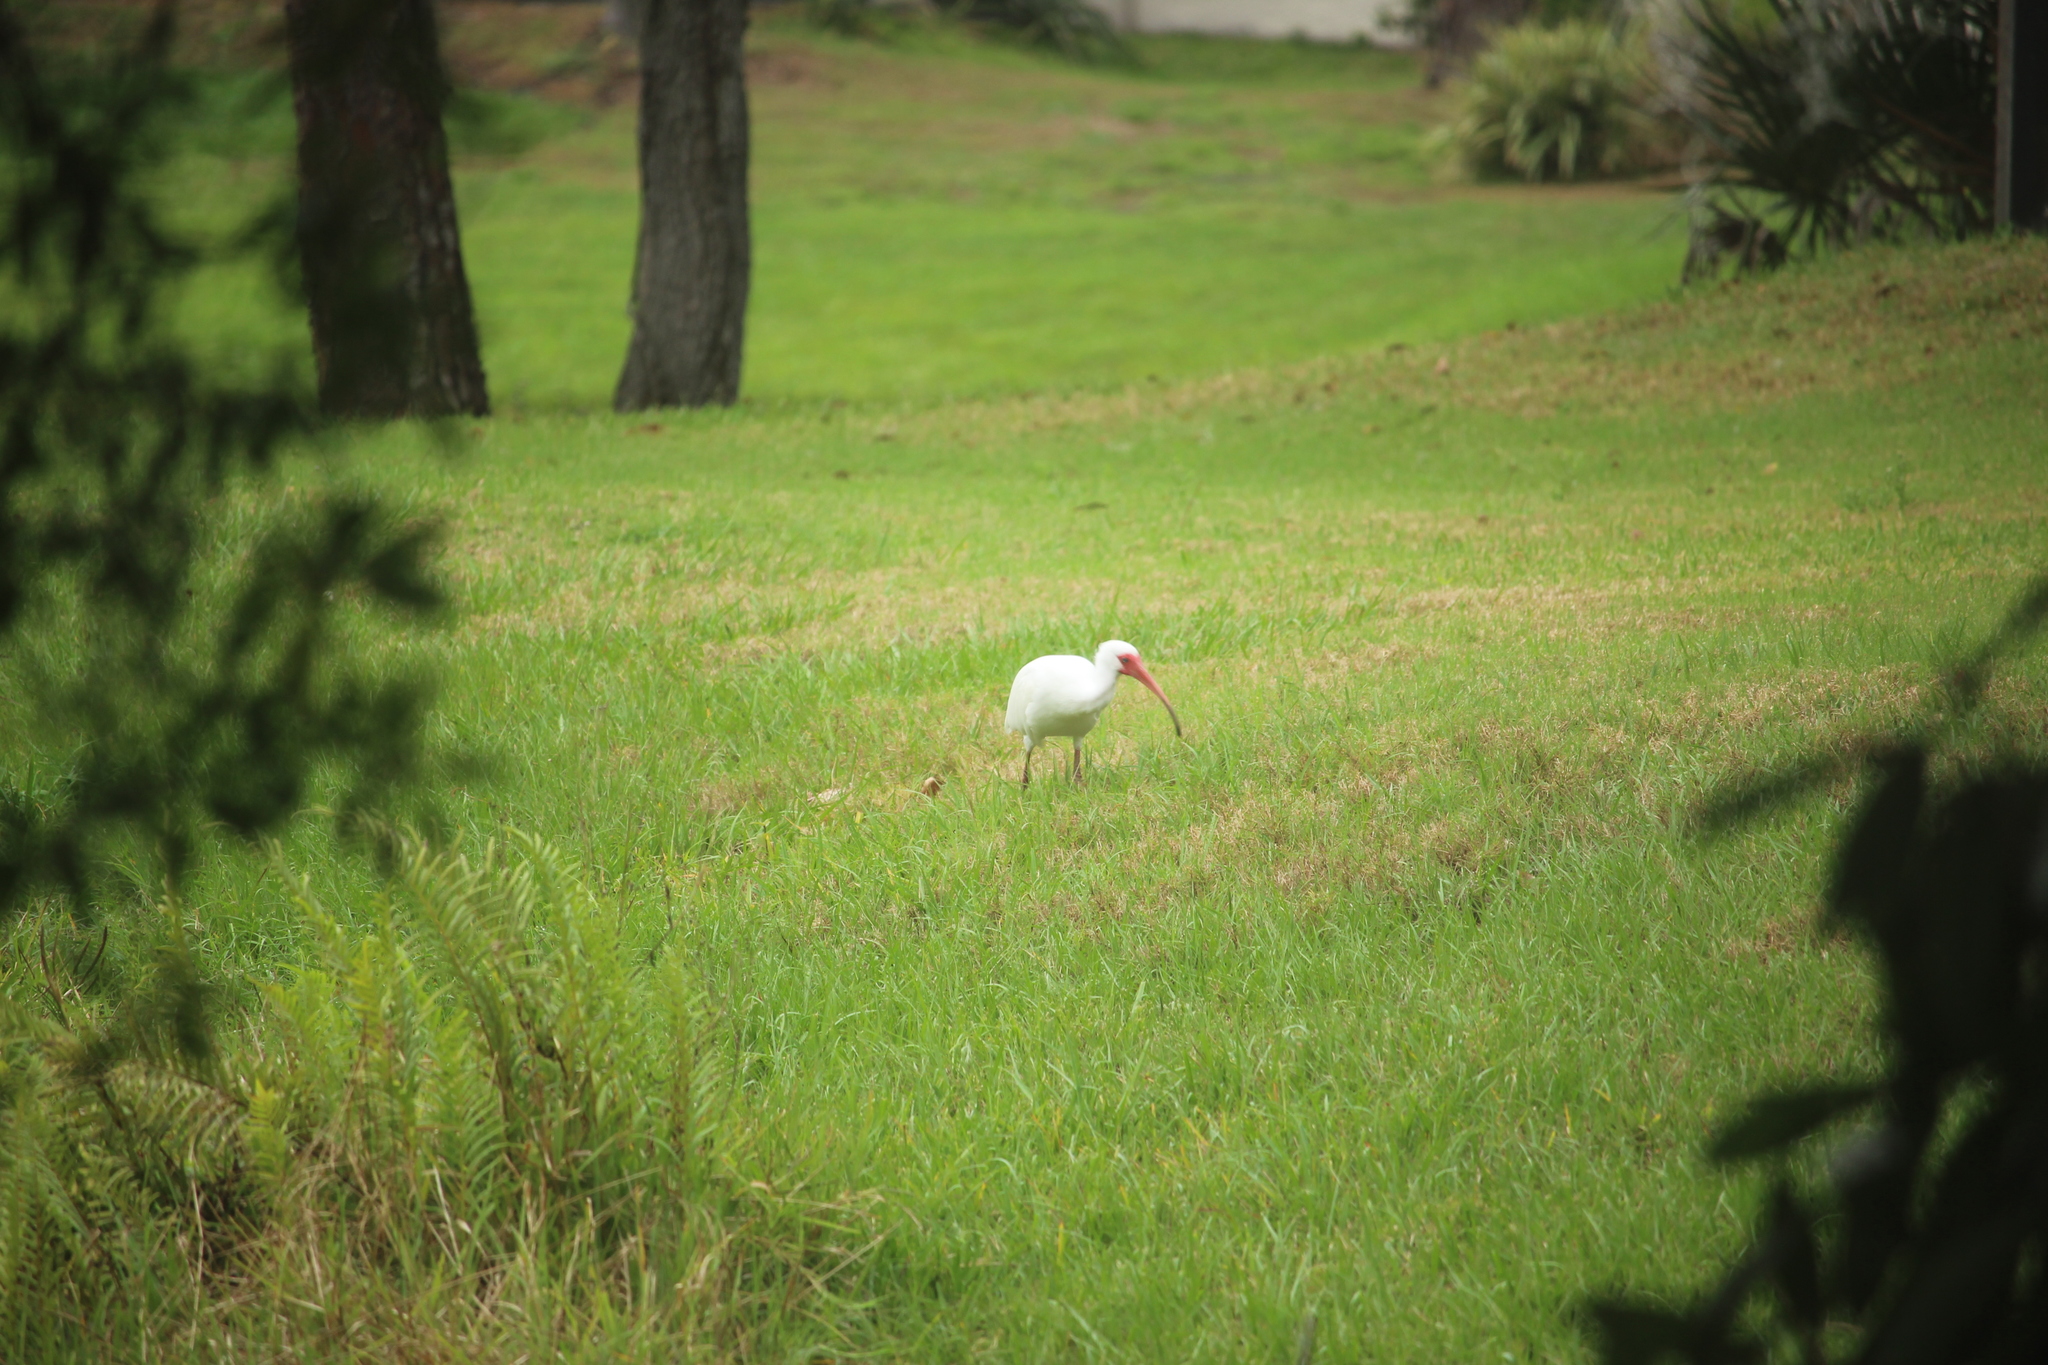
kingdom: Animalia
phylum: Chordata
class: Aves
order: Pelecaniformes
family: Threskiornithidae
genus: Eudocimus
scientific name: Eudocimus albus
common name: White ibis
